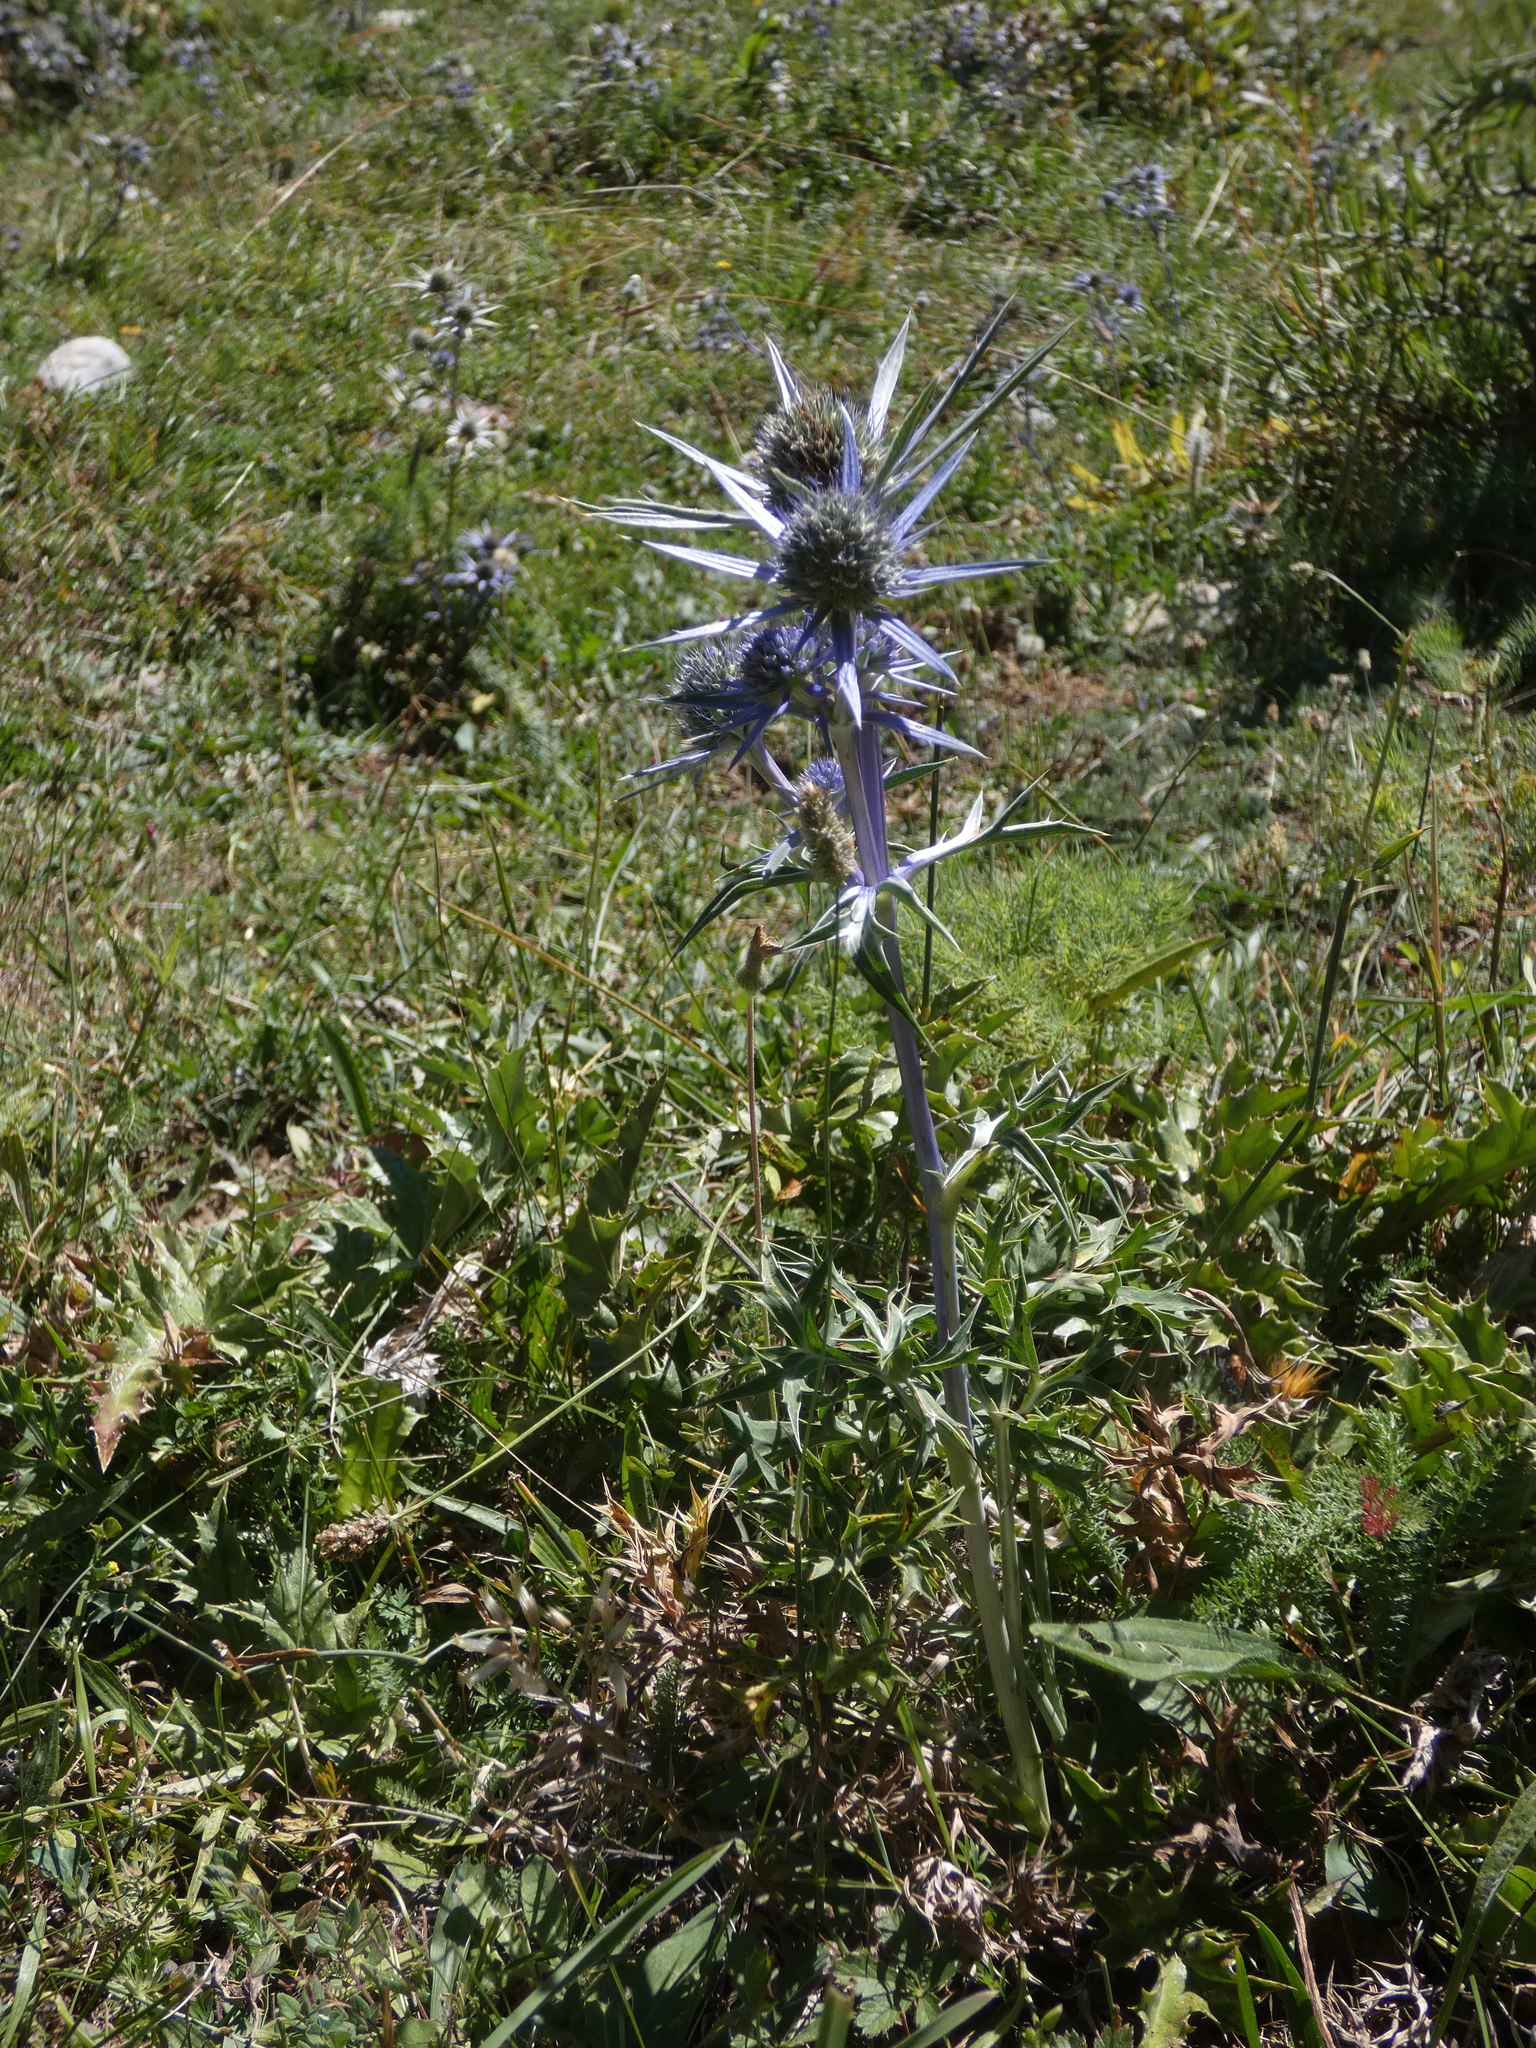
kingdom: Plantae
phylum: Tracheophyta
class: Magnoliopsida
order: Apiales
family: Apiaceae
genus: Eryngium
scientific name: Eryngium bourgatii
